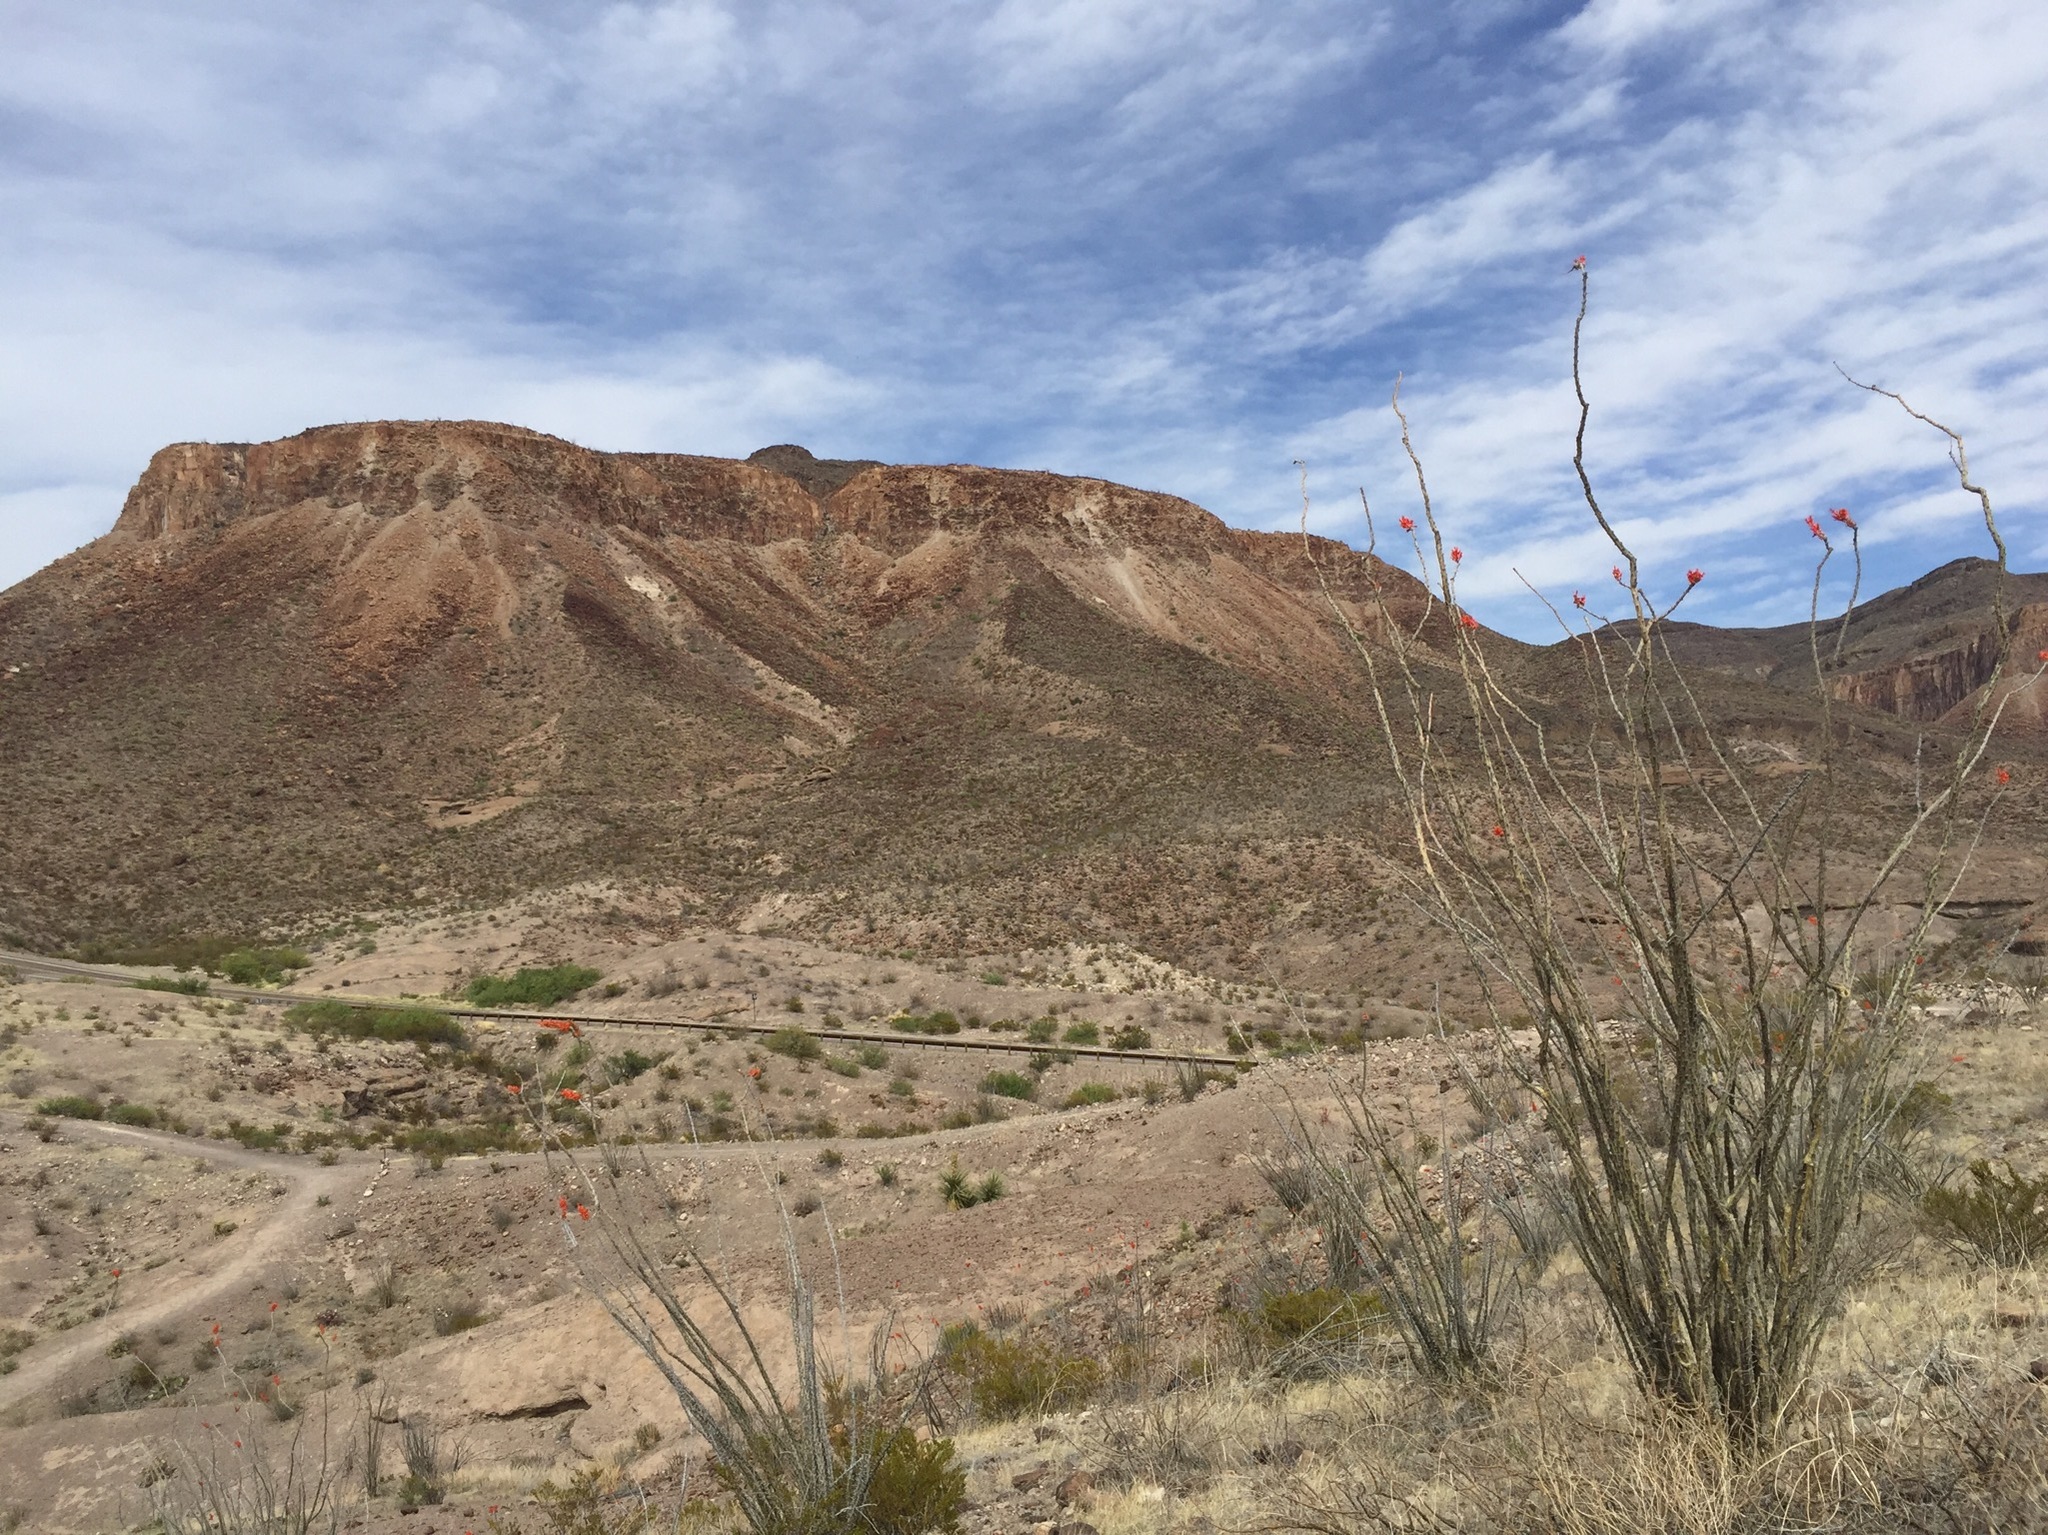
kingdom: Plantae
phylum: Tracheophyta
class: Magnoliopsida
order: Ericales
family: Fouquieriaceae
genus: Fouquieria
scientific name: Fouquieria splendens
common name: Vine-cactus
